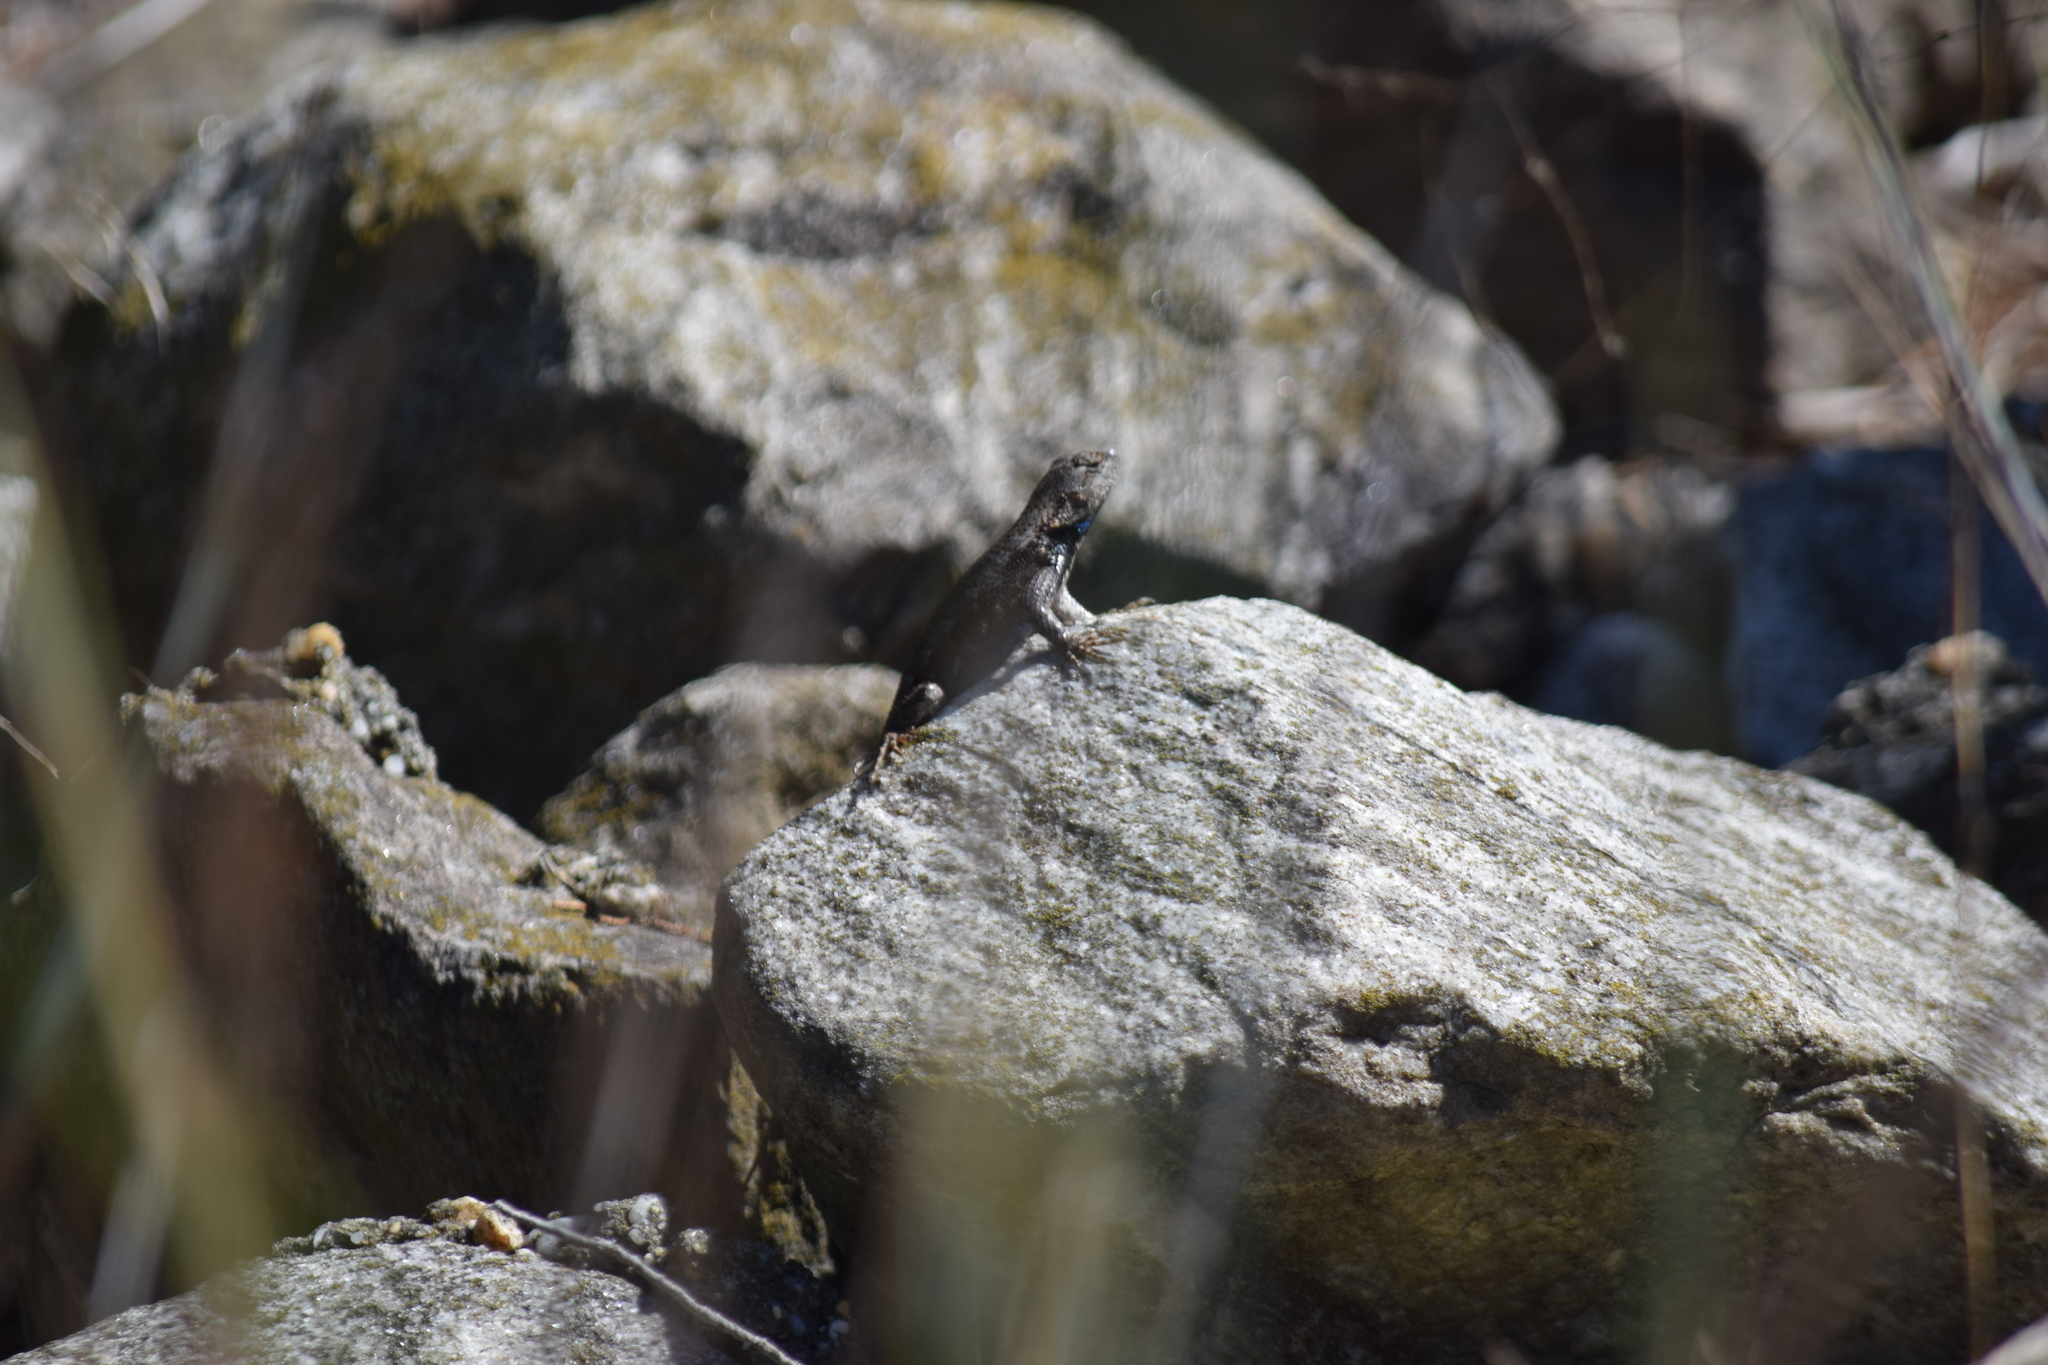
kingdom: Animalia
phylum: Chordata
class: Squamata
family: Phrynosomatidae
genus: Sceloporus
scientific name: Sceloporus undulatus
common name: Eastern fence lizard
